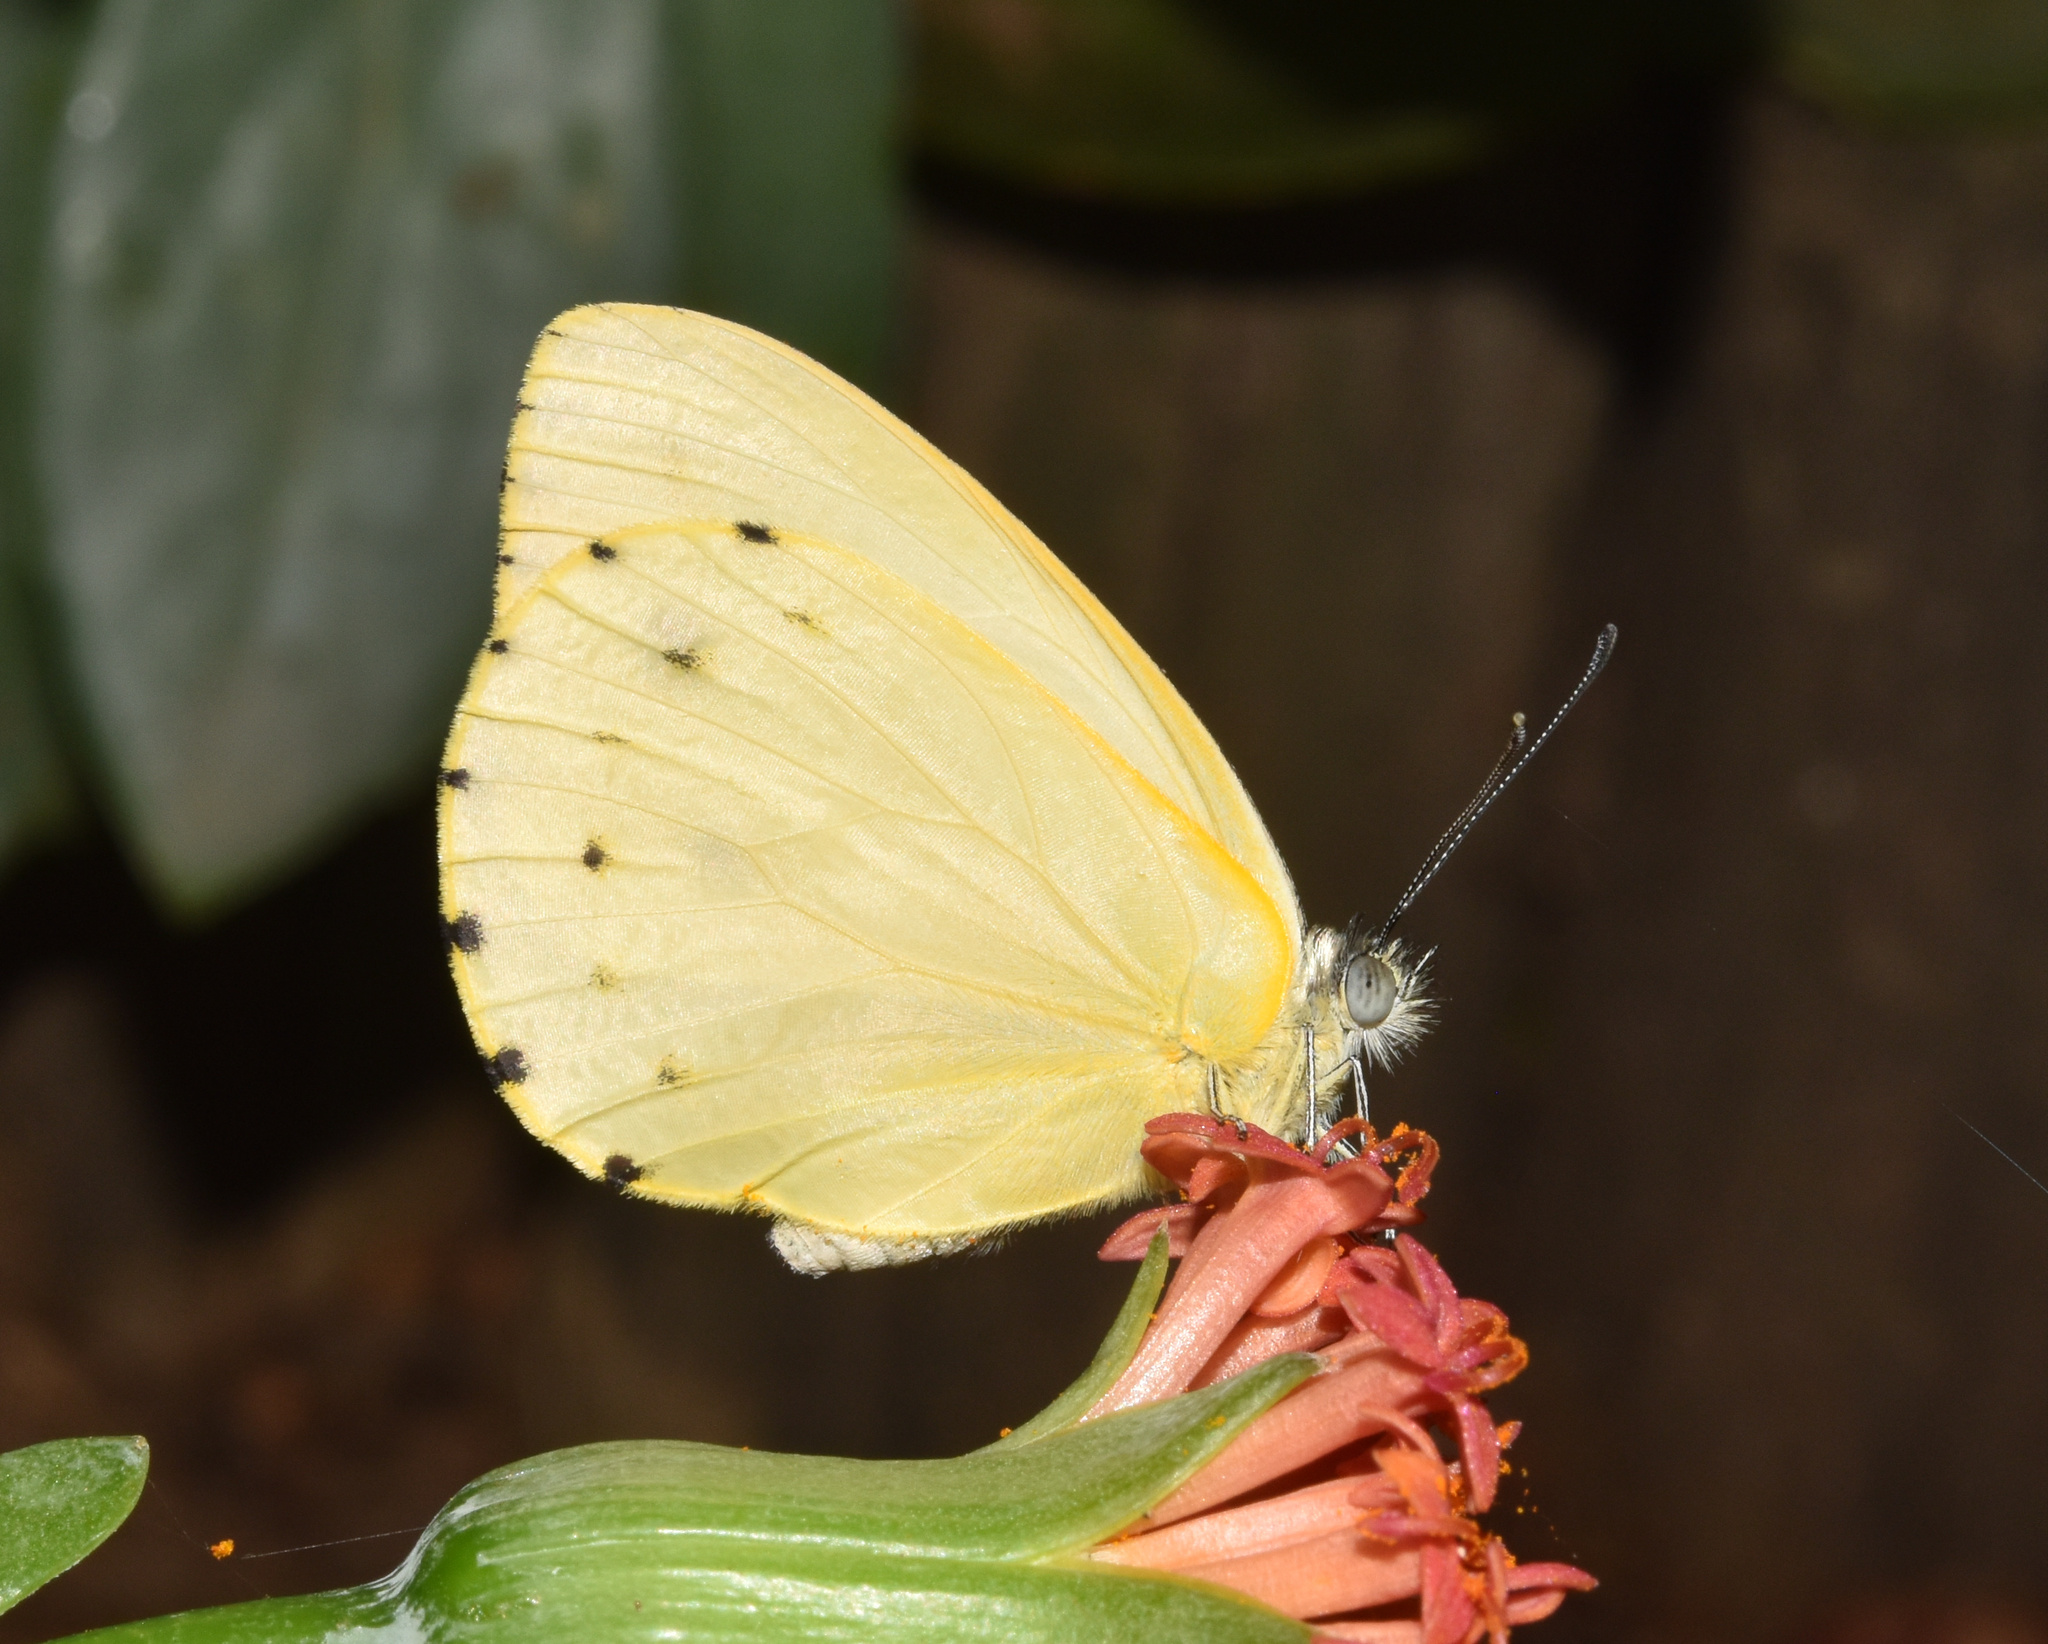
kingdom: Animalia
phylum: Arthropoda
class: Insecta
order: Lepidoptera
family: Pieridae
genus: Dixeia
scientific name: Dixeia pigea
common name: Ant-heap small white
